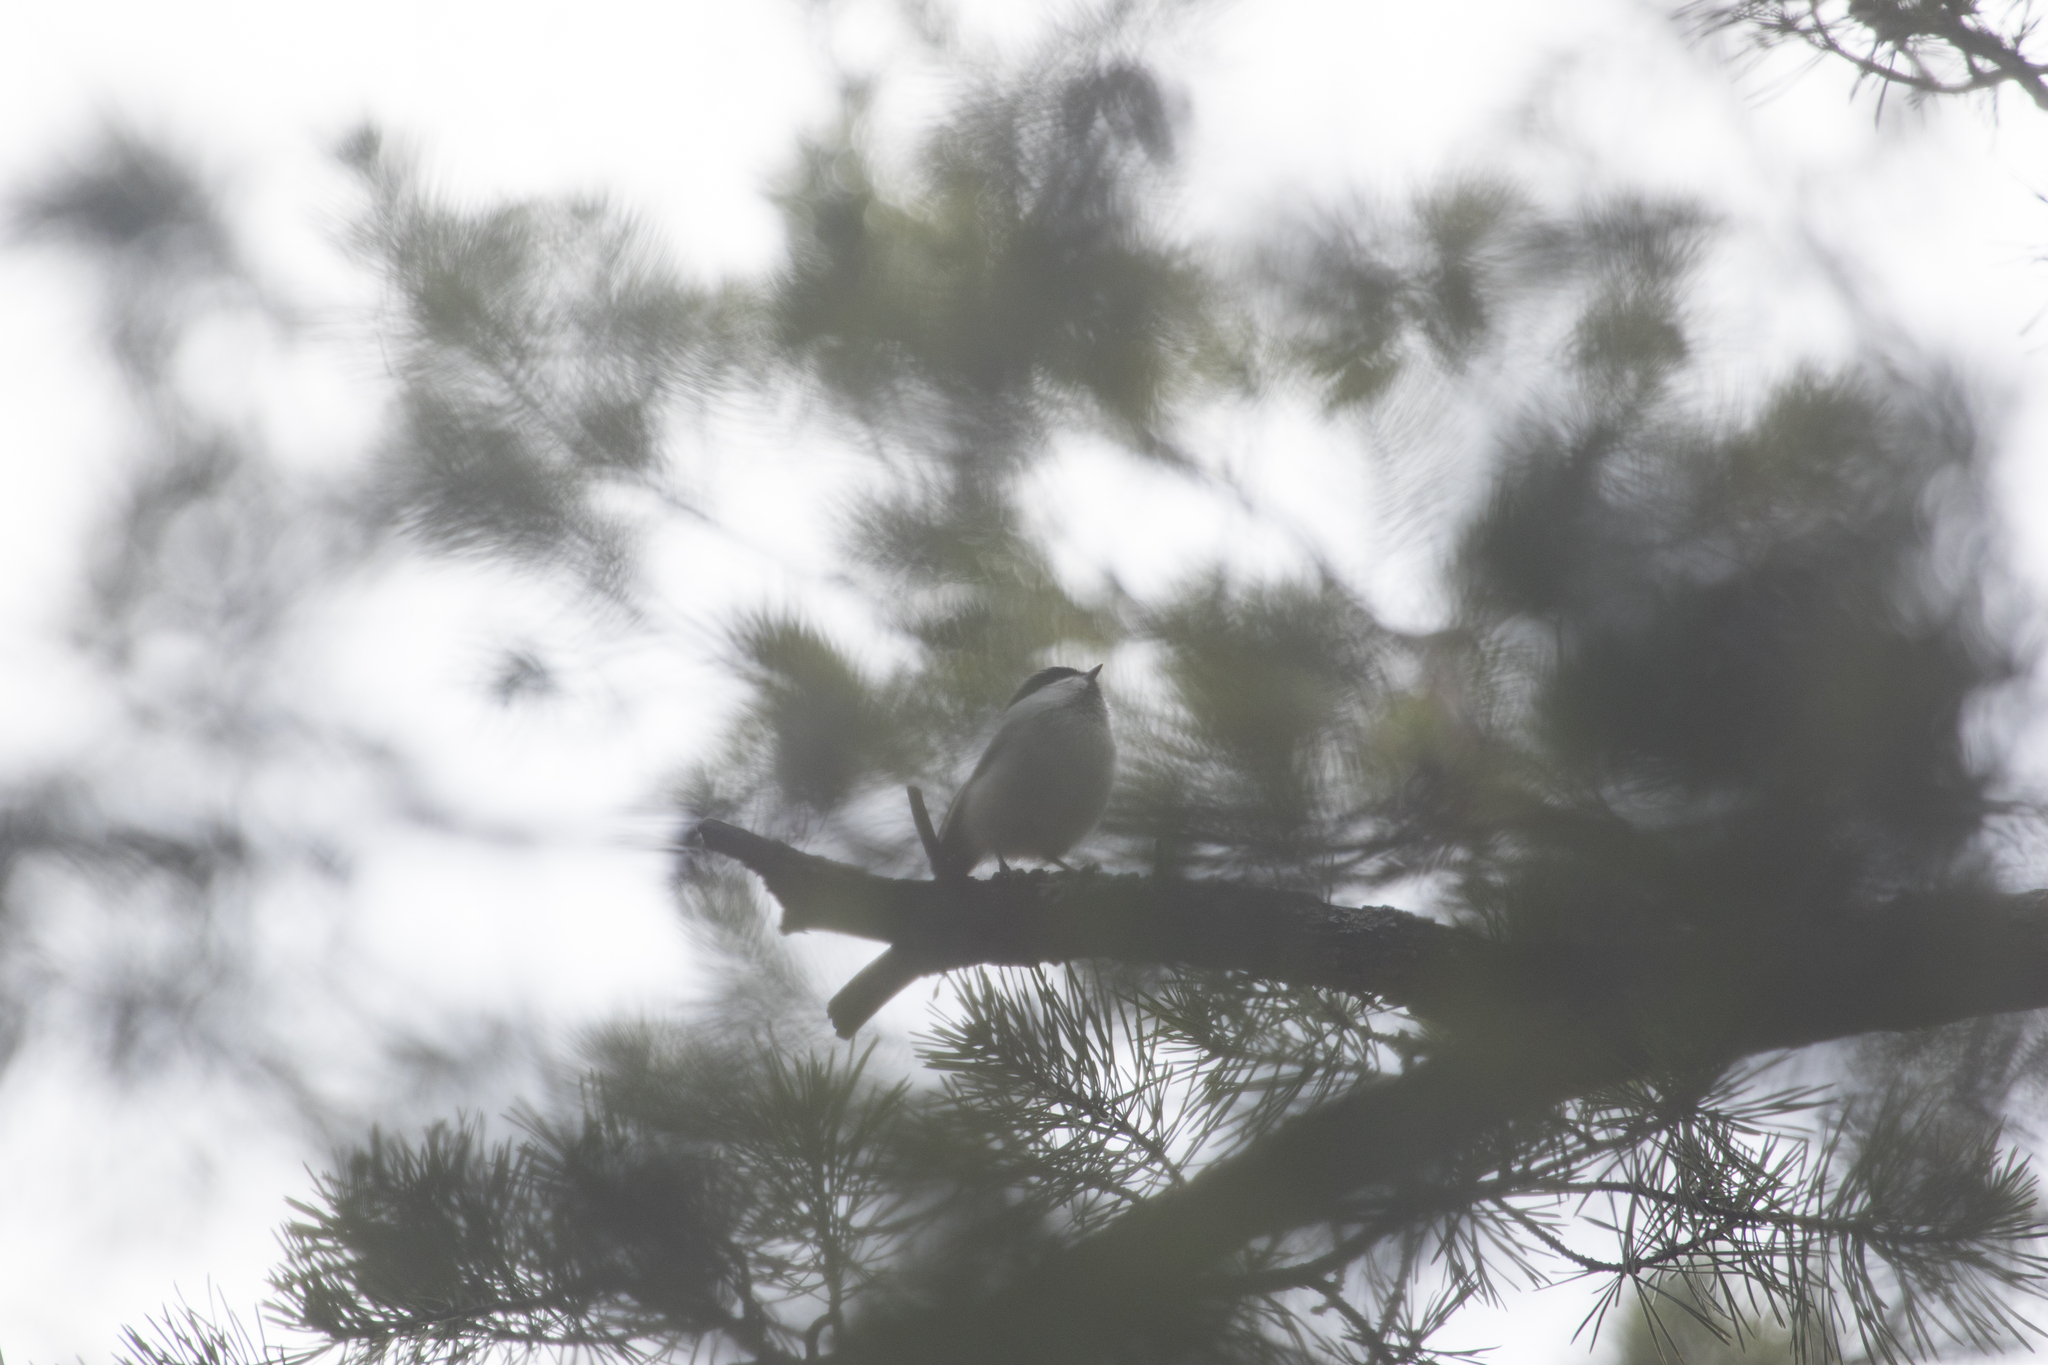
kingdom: Animalia
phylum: Chordata
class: Aves
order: Passeriformes
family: Paridae
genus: Poecile
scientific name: Poecile montanus
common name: Willow tit
